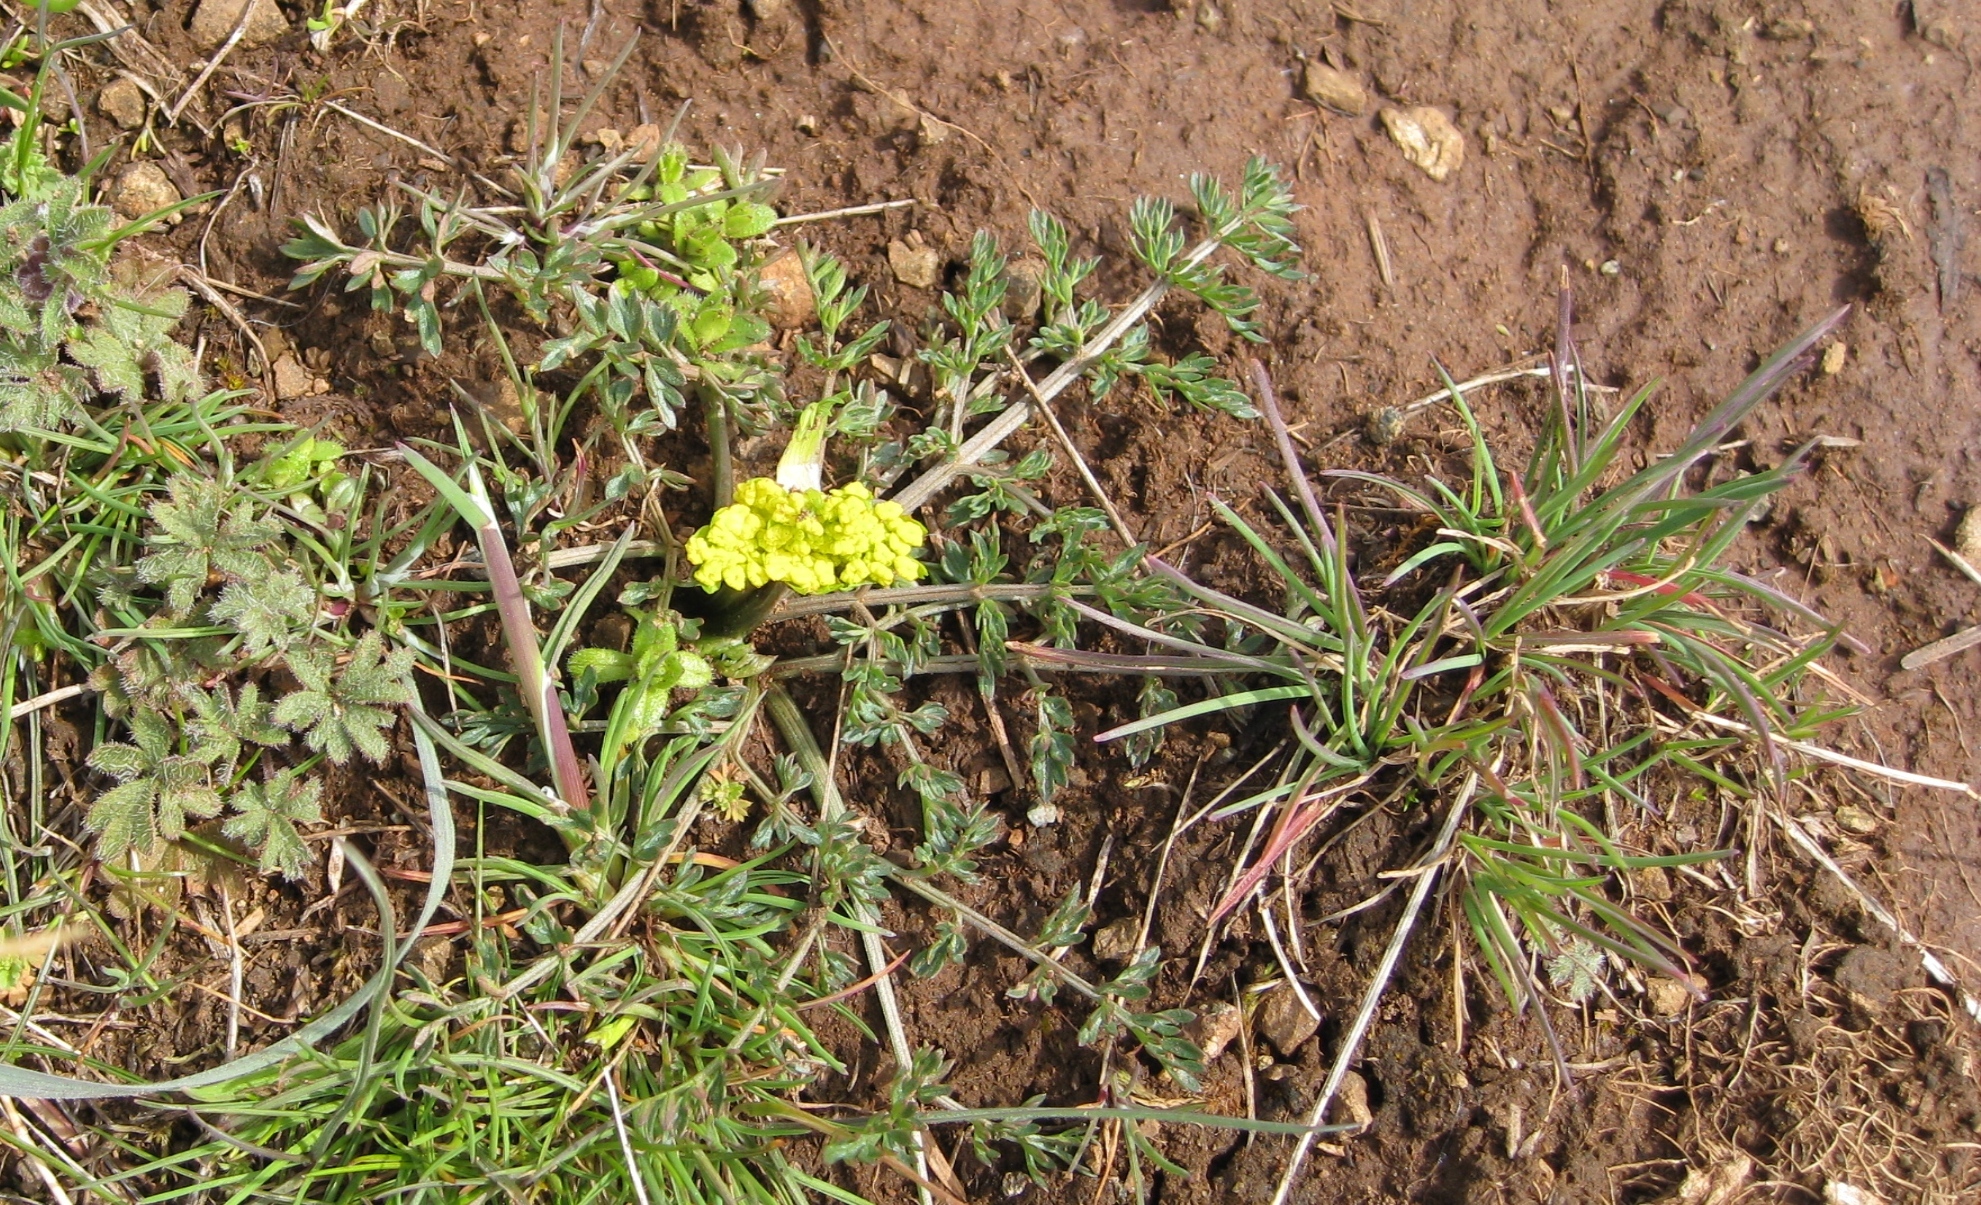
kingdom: Plantae
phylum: Tracheophyta
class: Magnoliopsida
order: Apiales
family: Apiaceae
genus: Lomatium
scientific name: Lomatium utriculatum
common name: Fine-leaf desert-parsley
